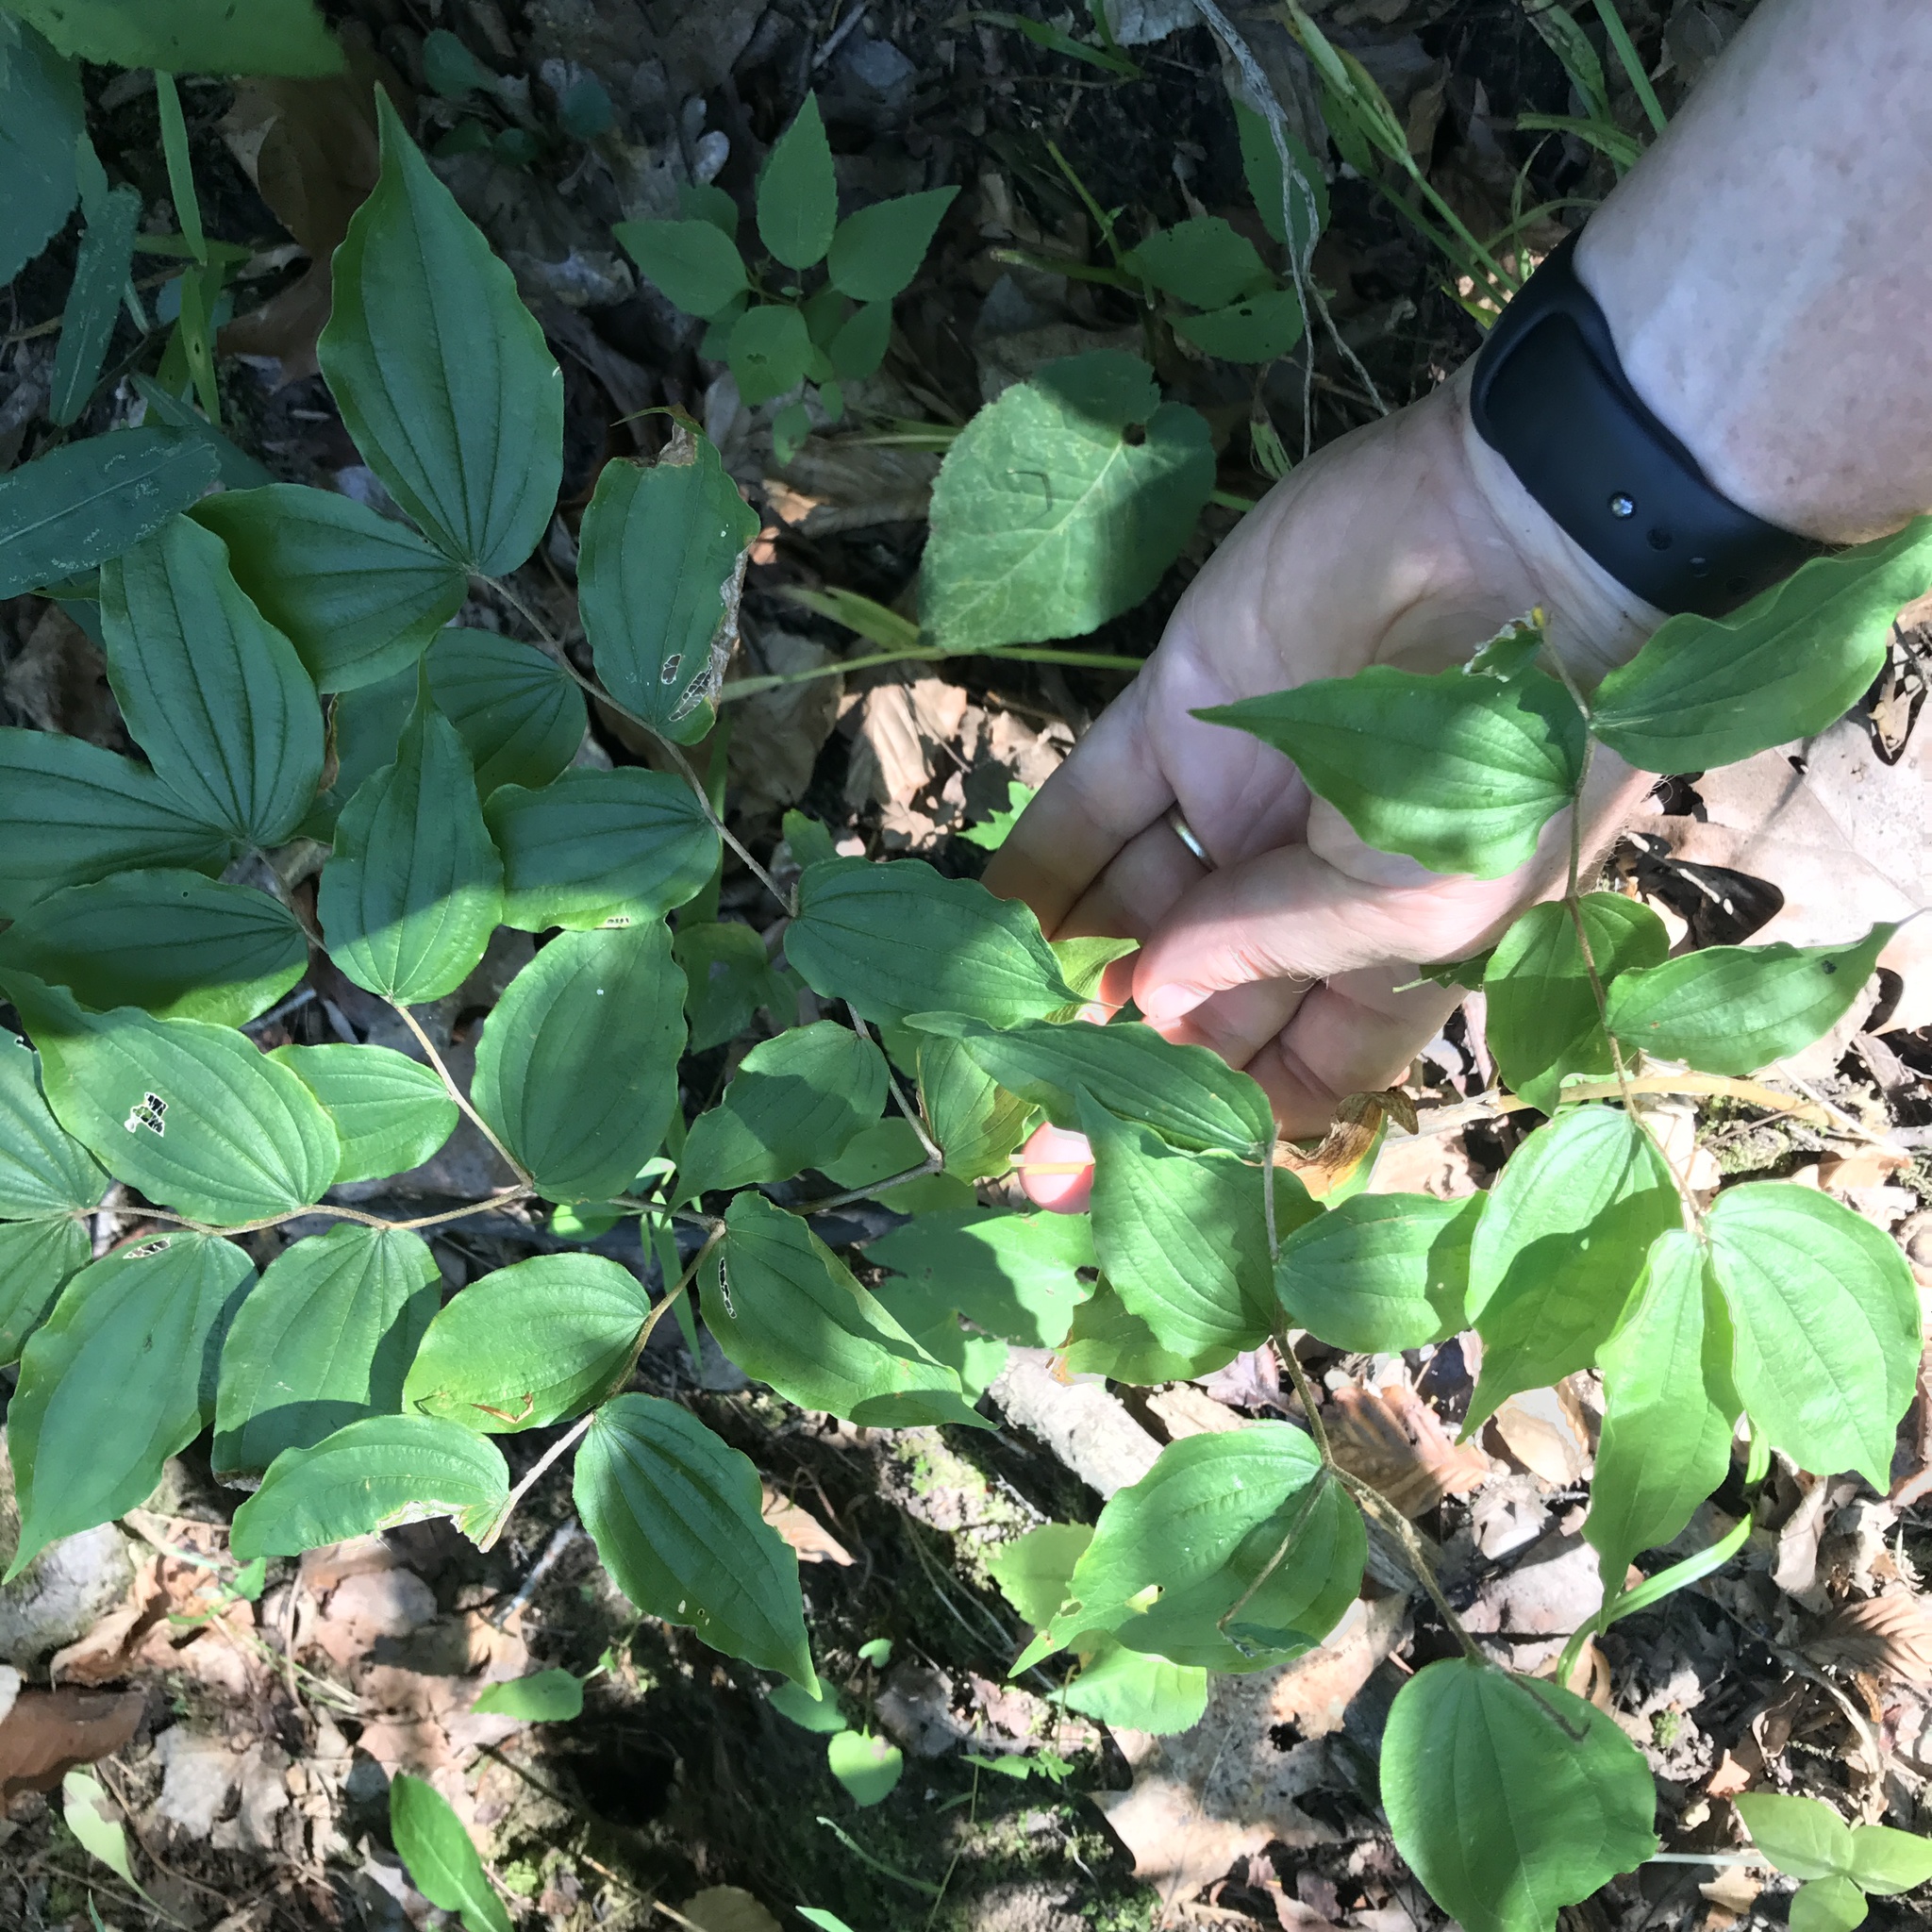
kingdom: Plantae
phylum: Tracheophyta
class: Liliopsida
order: Liliales
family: Liliaceae
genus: Prosartes
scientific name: Prosartes lanuginosa
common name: Hairy mandarin
